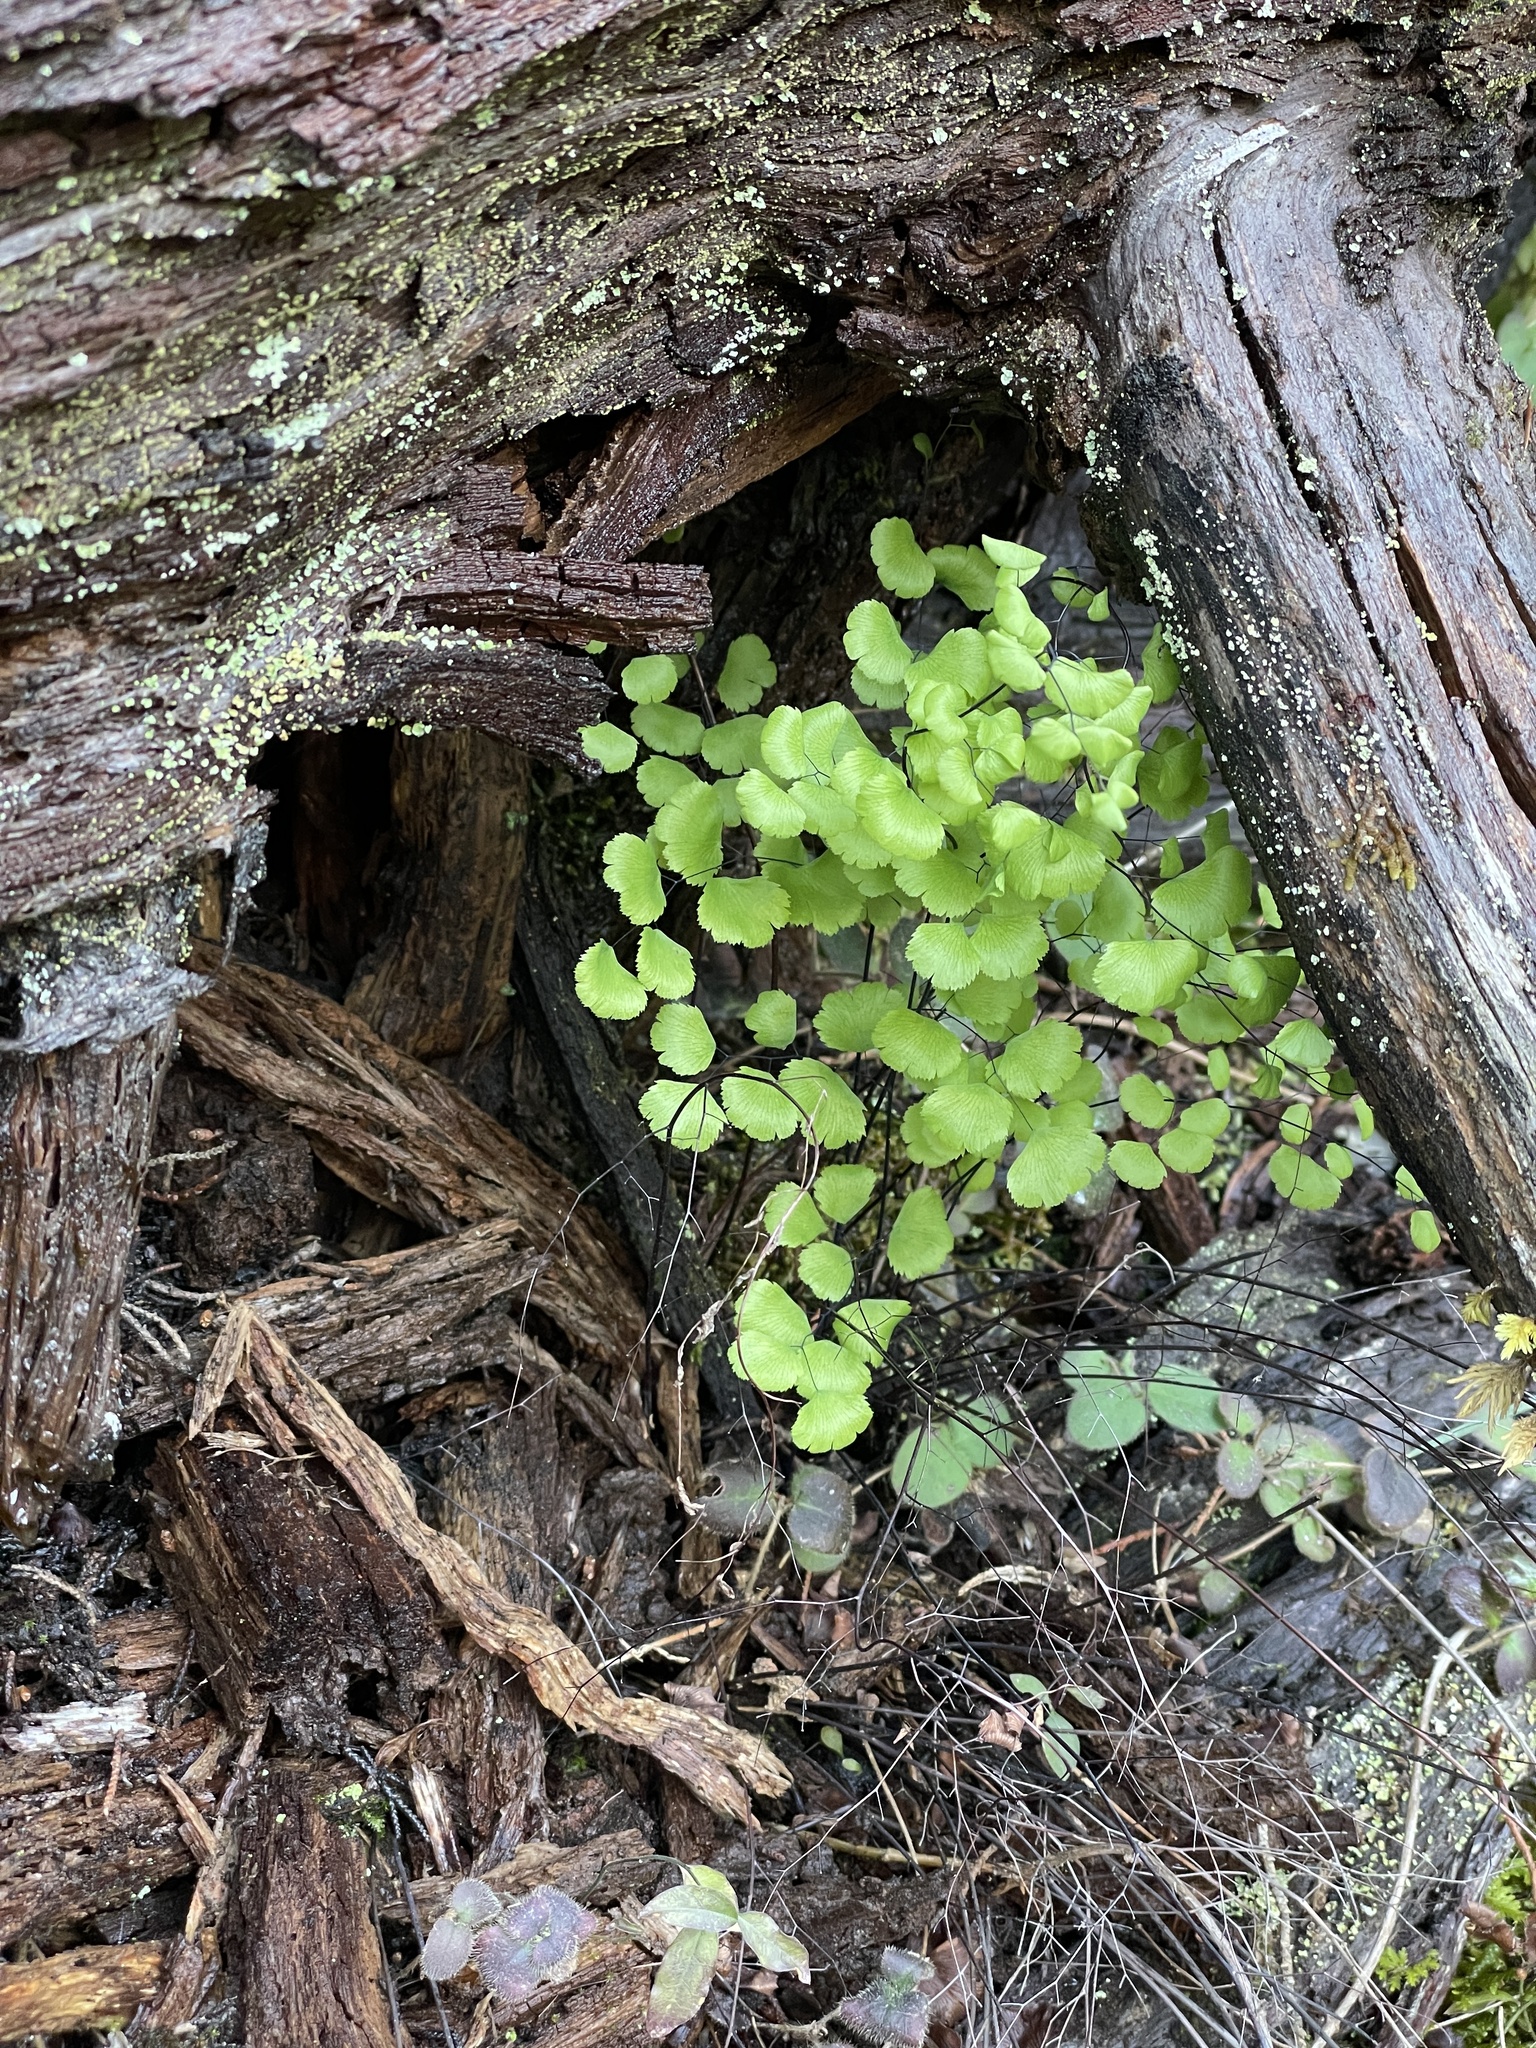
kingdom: Plantae
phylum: Tracheophyta
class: Polypodiopsida
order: Polypodiales
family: Pteridaceae
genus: Adiantum
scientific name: Adiantum jordanii
